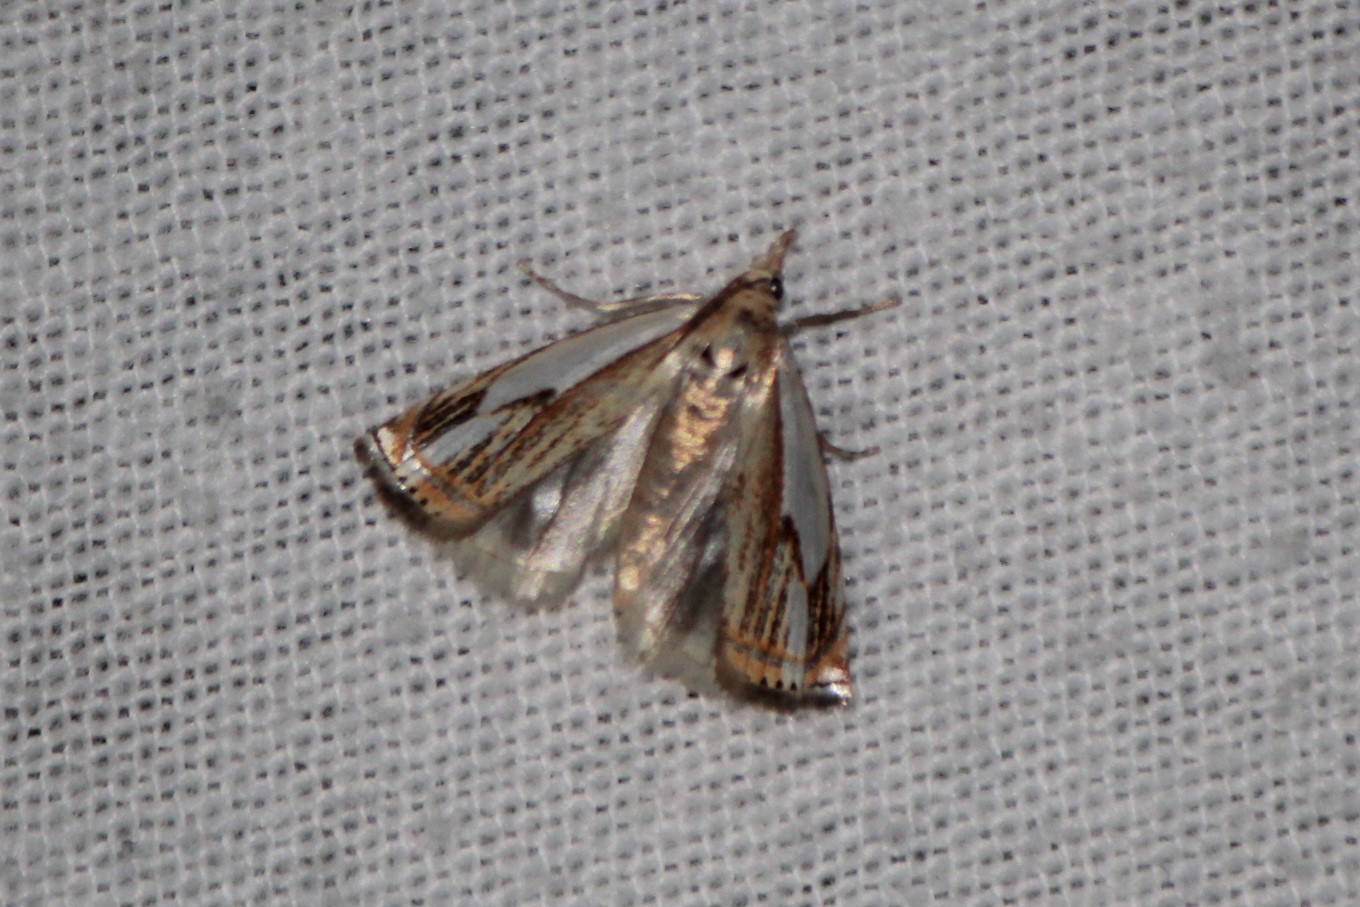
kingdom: Animalia
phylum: Arthropoda
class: Insecta
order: Lepidoptera
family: Crambidae
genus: Crambus
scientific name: Crambus agitatellus
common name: Double-banded grass-veneer
